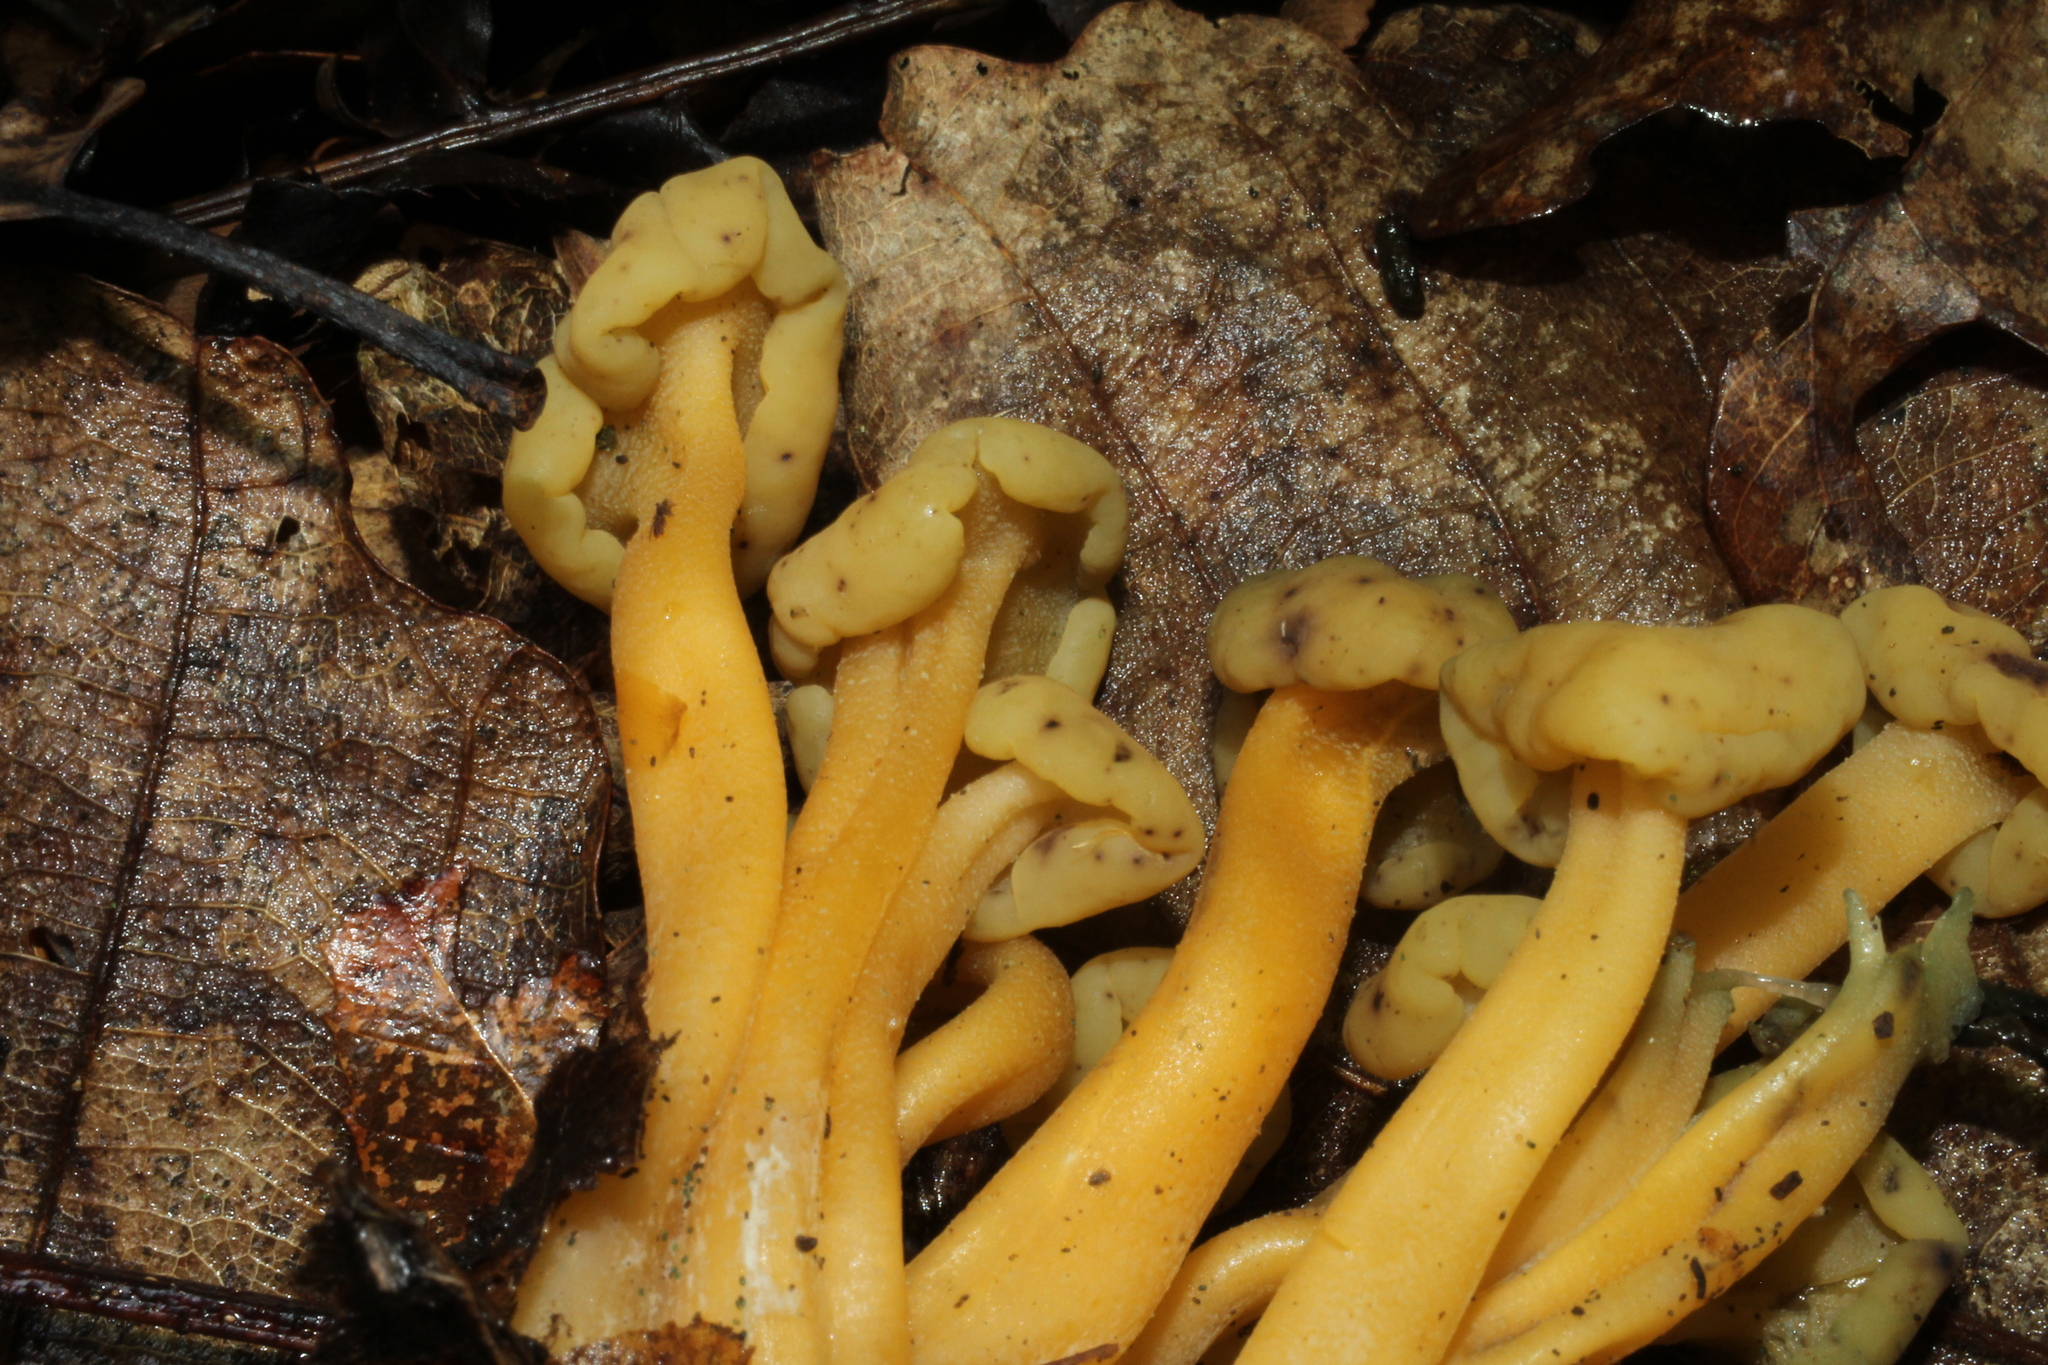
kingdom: Fungi
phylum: Ascomycota
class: Leotiomycetes
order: Leotiales
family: Leotiaceae
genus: Leotia
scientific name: Leotia lubrica
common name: Jellybaby
